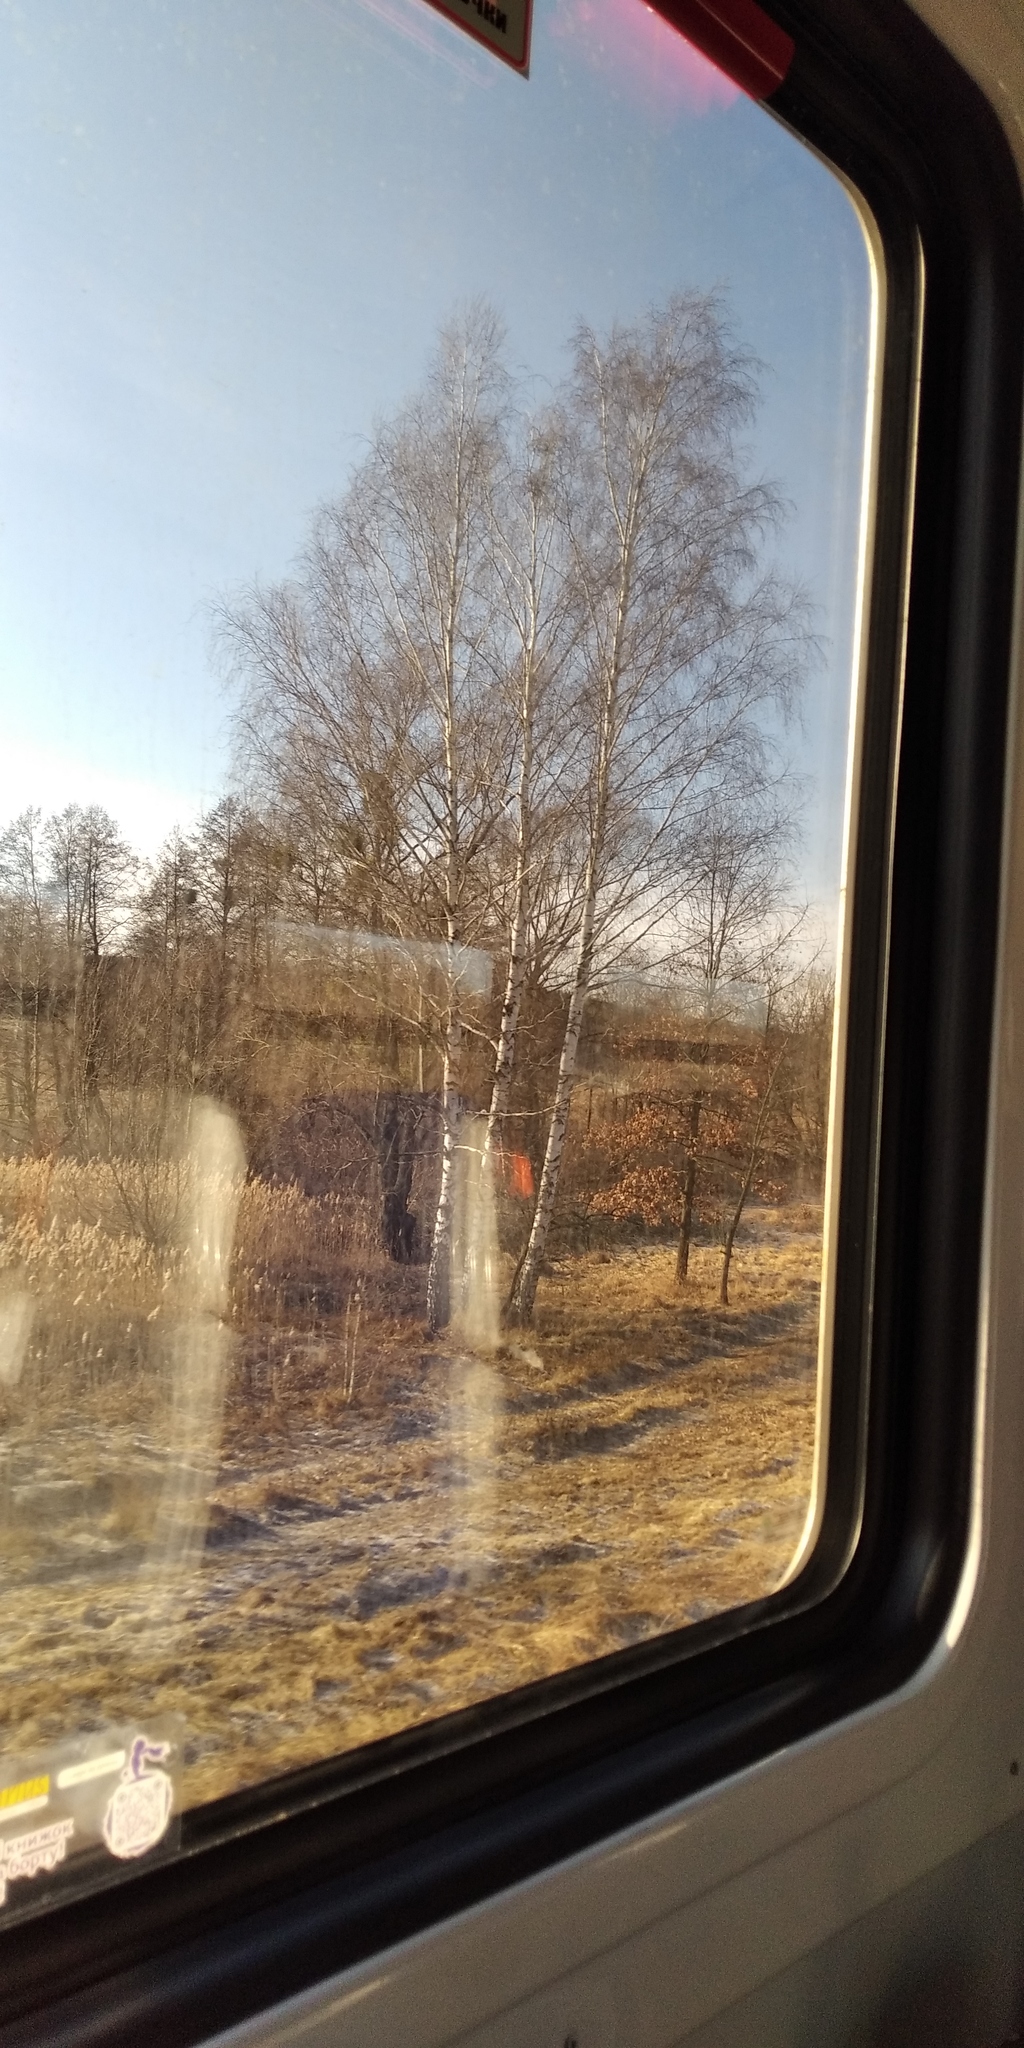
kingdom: Plantae
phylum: Tracheophyta
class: Magnoliopsida
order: Santalales
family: Viscaceae
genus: Viscum
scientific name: Viscum album
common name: Mistletoe
